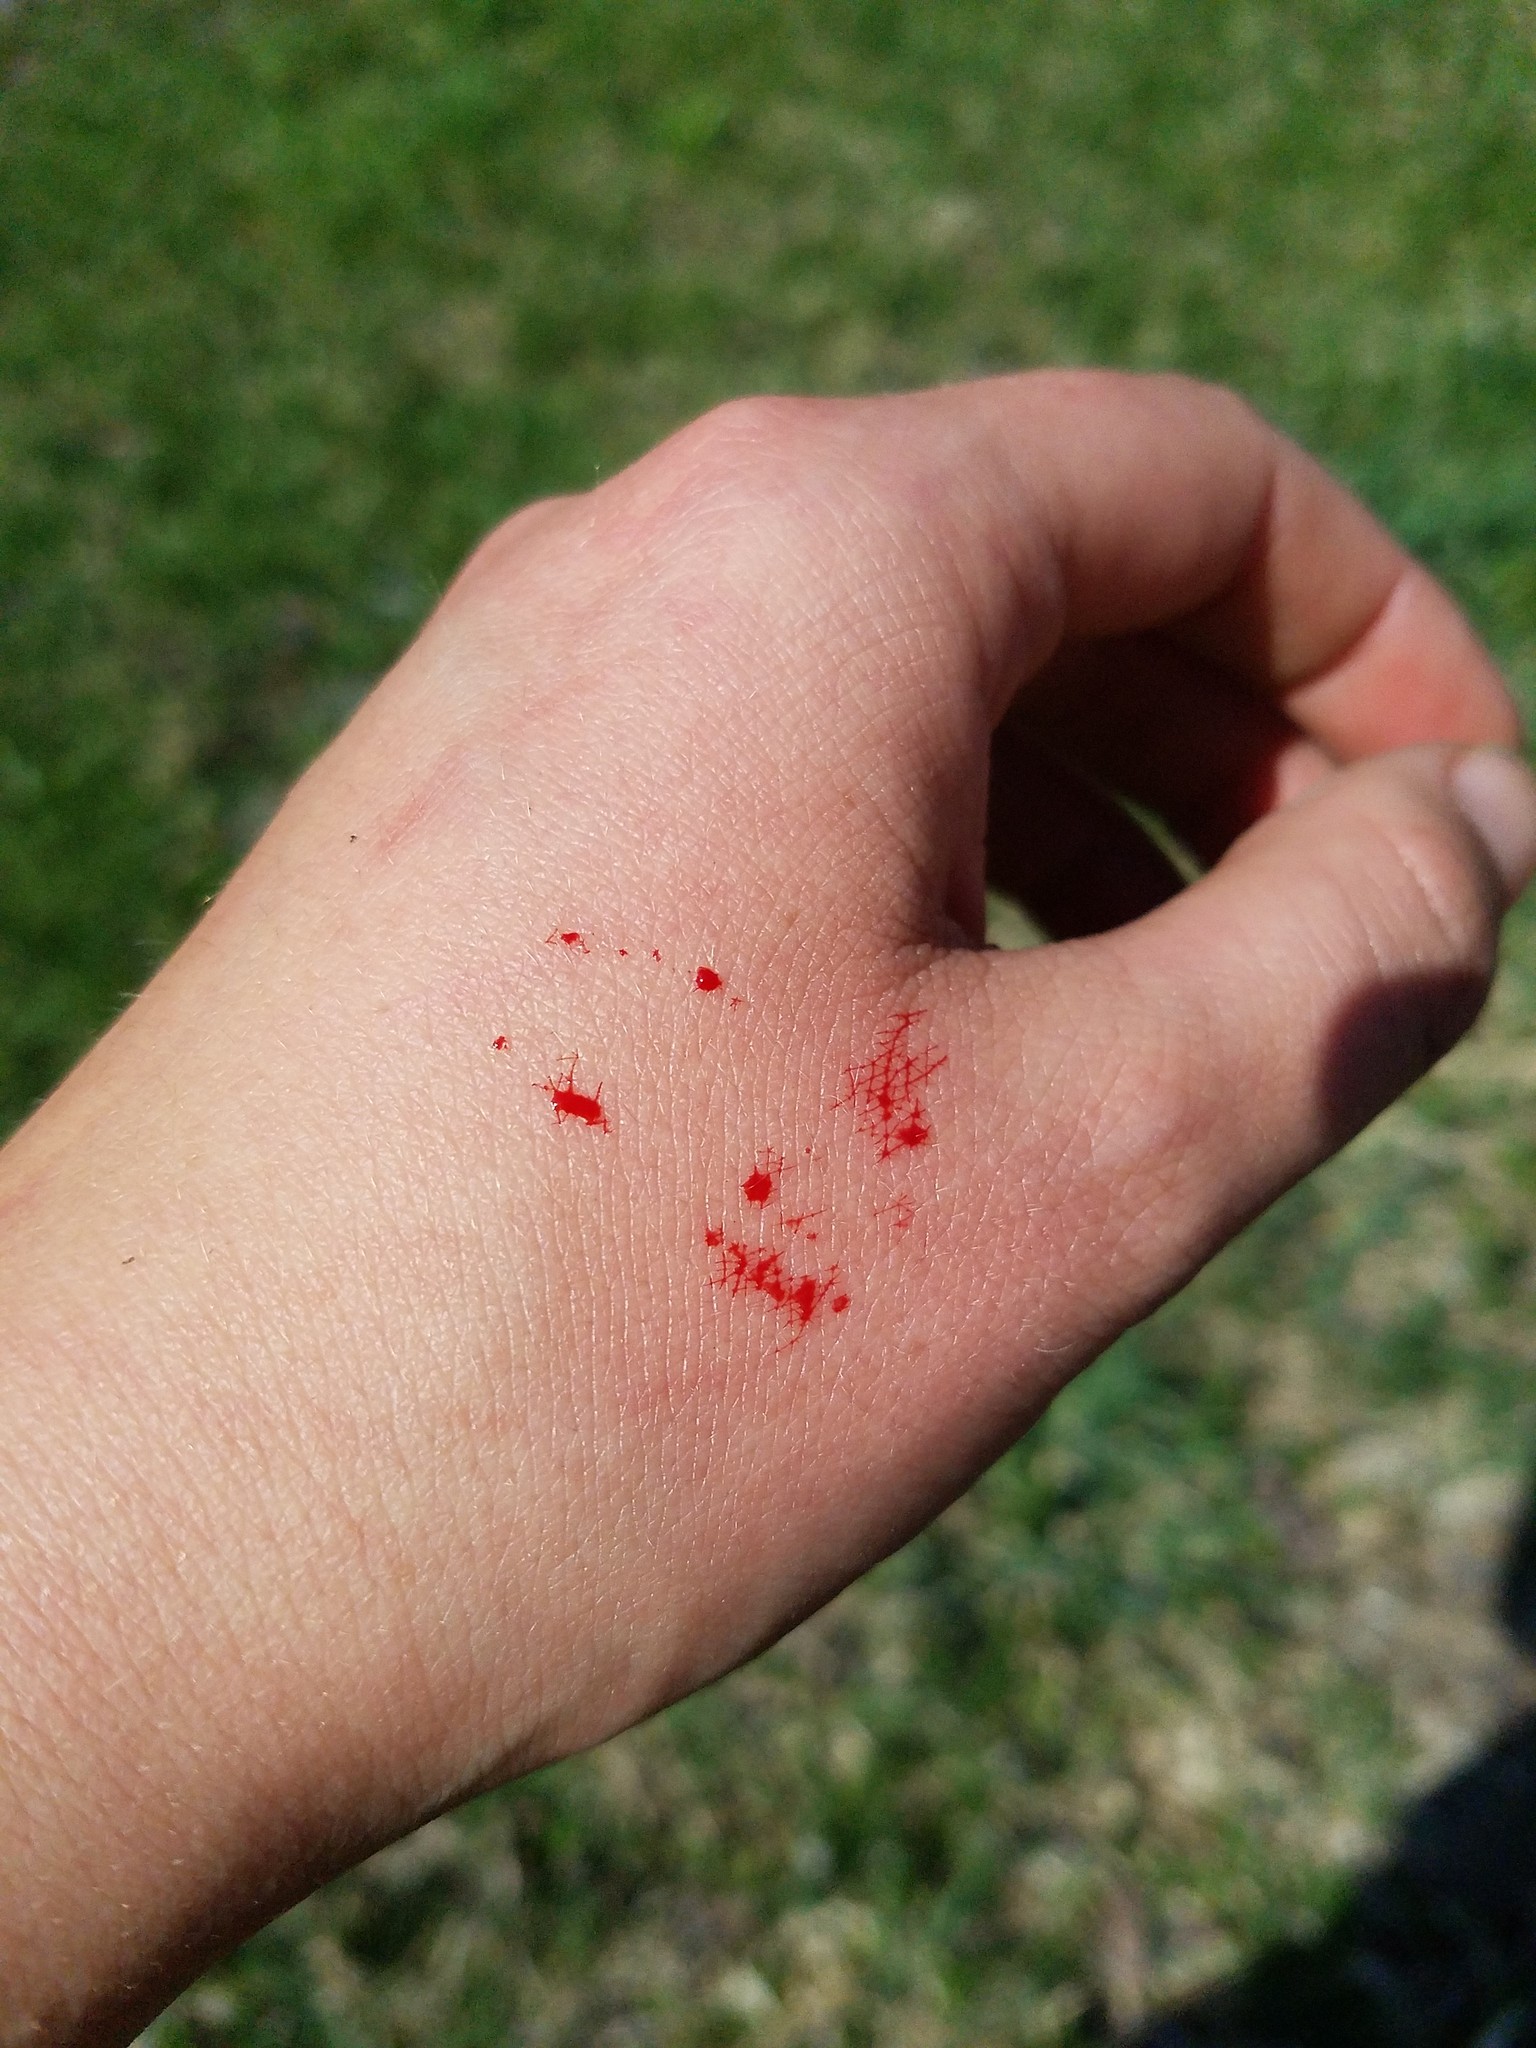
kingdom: Animalia
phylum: Chordata
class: Squamata
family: Colubridae
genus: Thamnophis
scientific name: Thamnophis sirtalis
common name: Common garter snake
